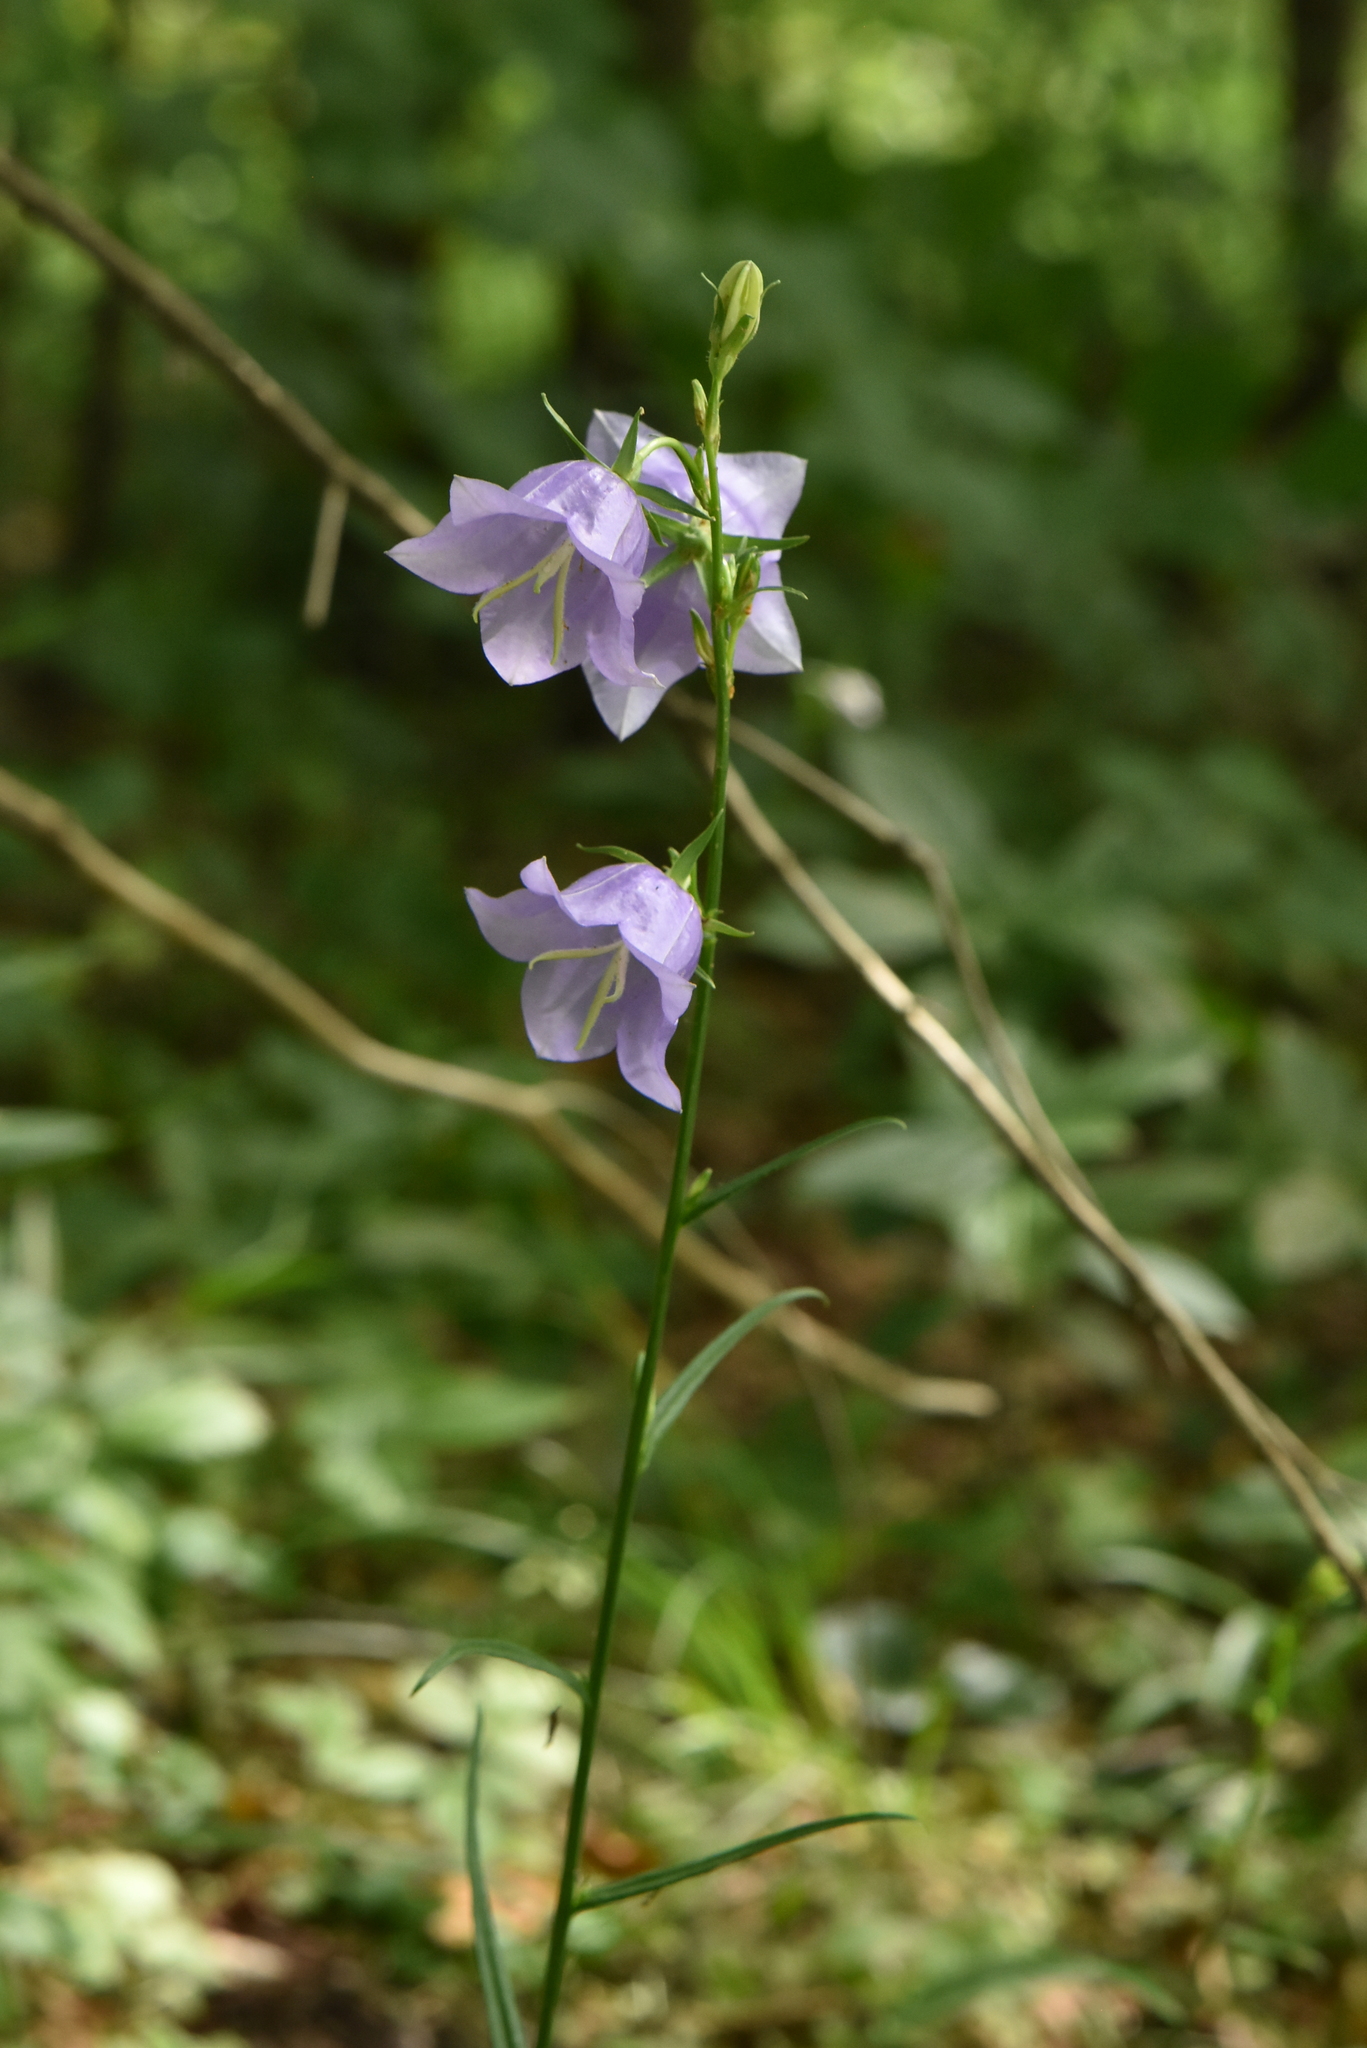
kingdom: Plantae
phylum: Tracheophyta
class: Magnoliopsida
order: Asterales
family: Campanulaceae
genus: Campanula
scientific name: Campanula persicifolia
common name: Peach-leaved bellflower
